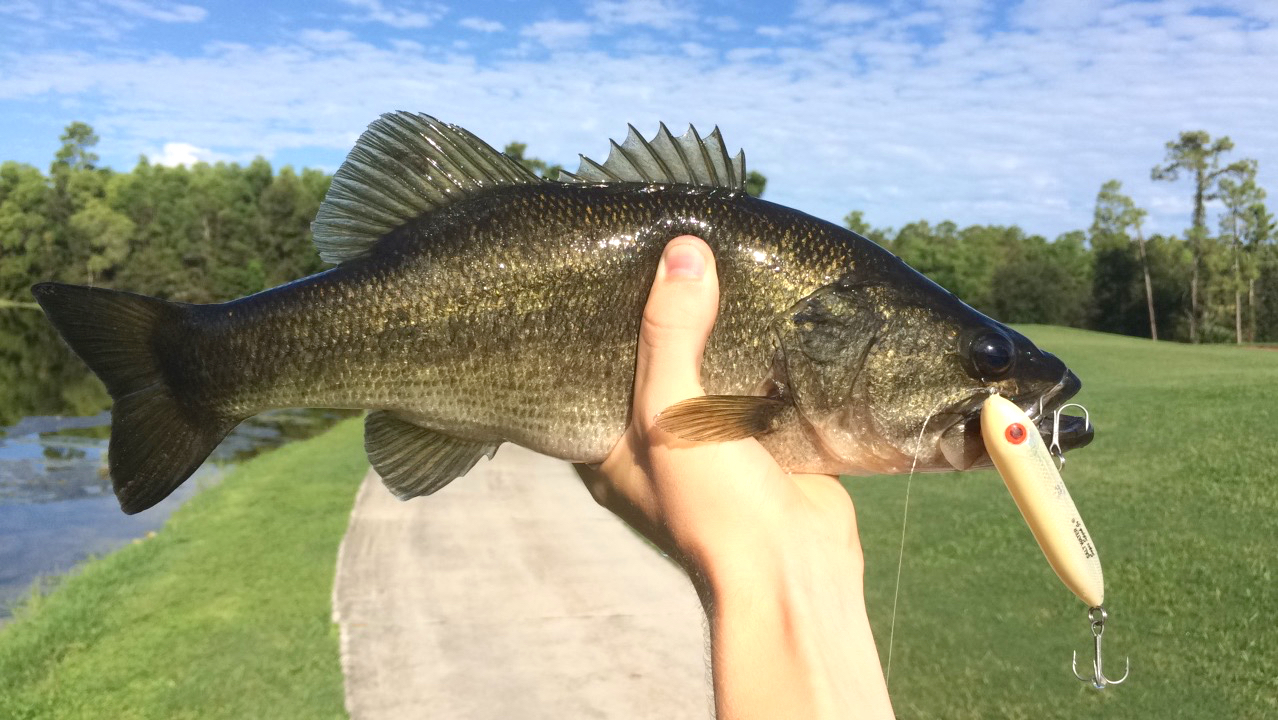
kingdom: Animalia
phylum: Chordata
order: Perciformes
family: Centrarchidae
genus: Micropterus
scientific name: Micropterus salmoides
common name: Largemouth bass
